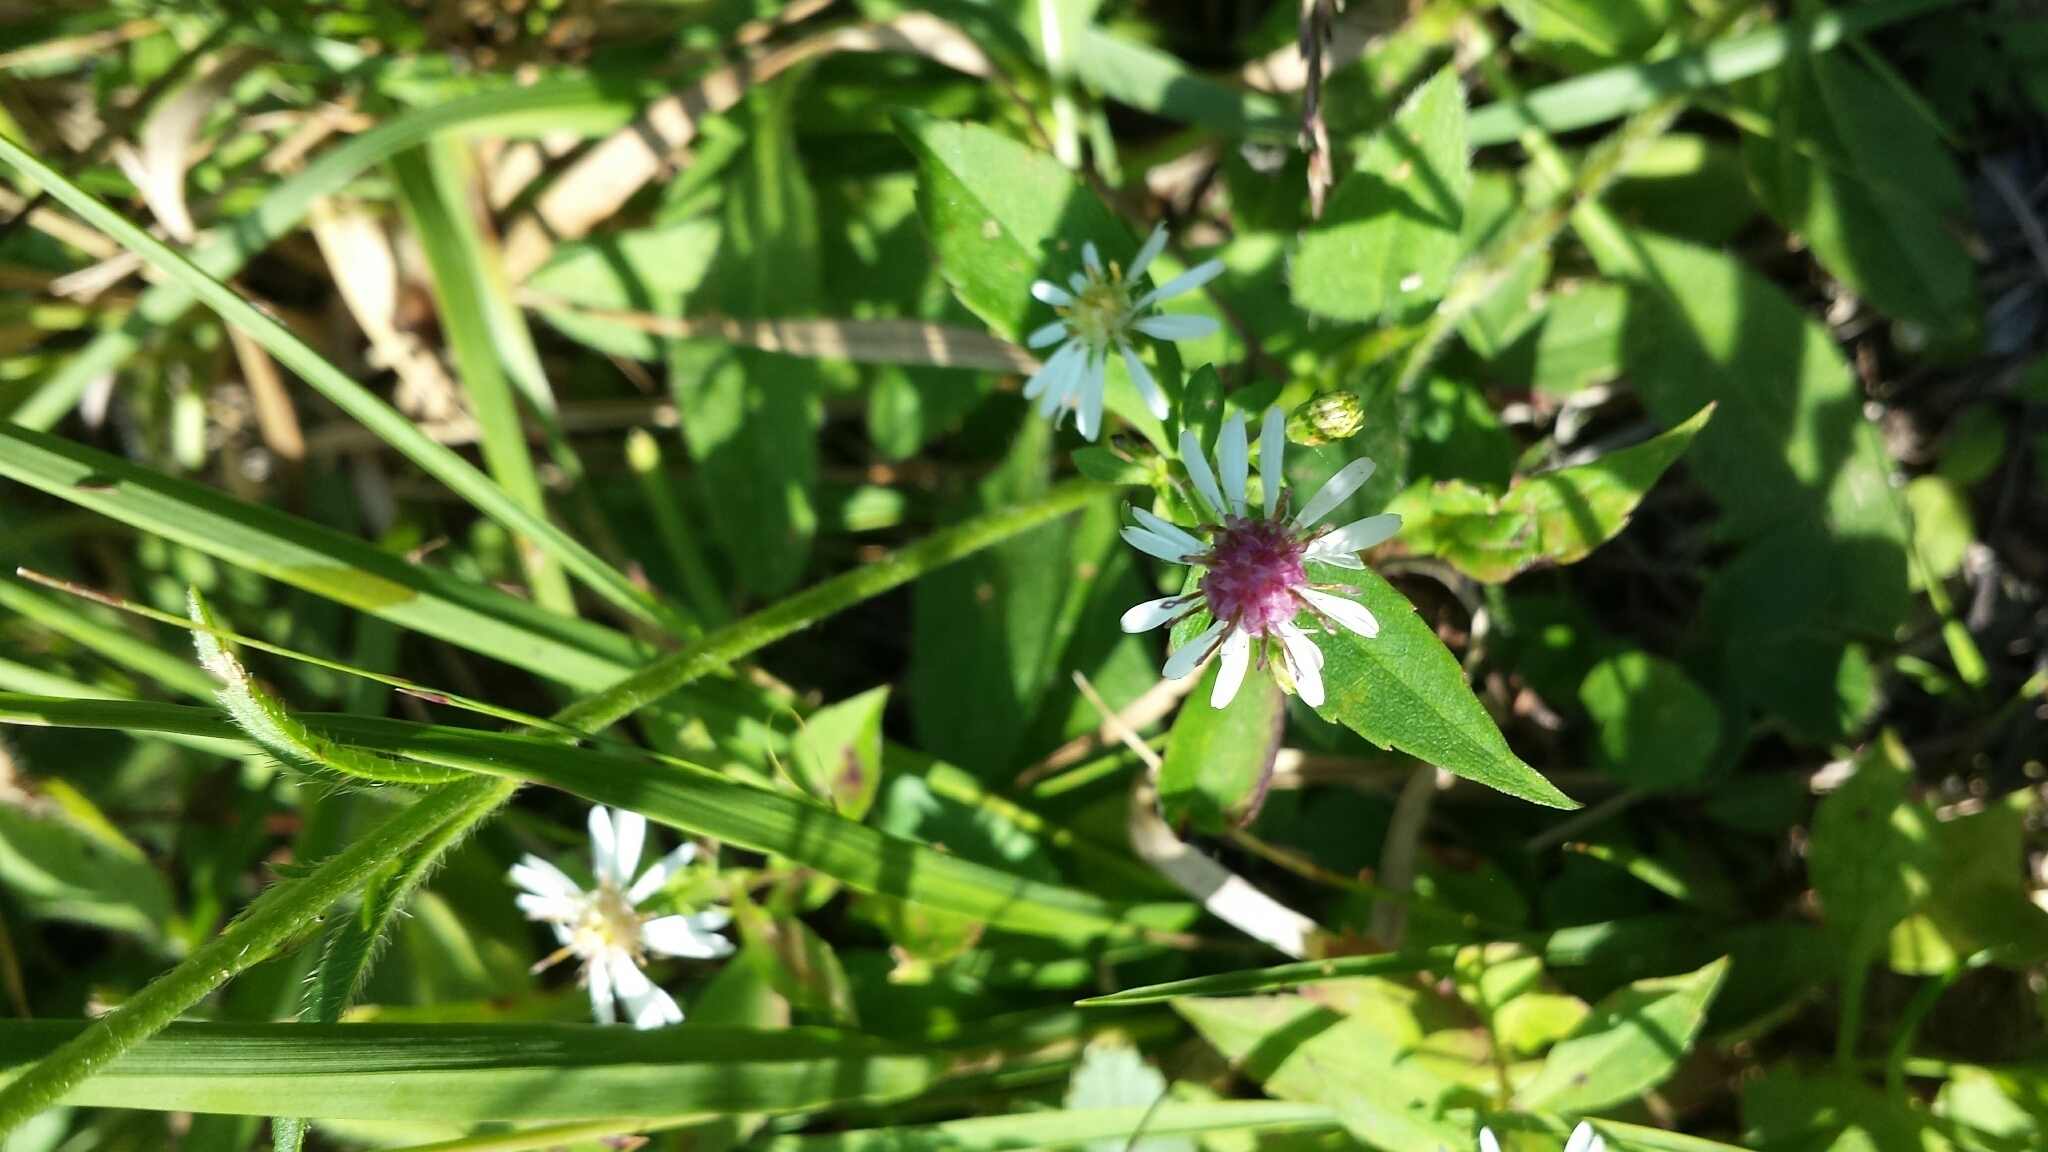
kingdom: Plantae
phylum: Tracheophyta
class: Magnoliopsida
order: Asterales
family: Asteraceae
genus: Symphyotrichum
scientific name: Symphyotrichum lateriflorum
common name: Calico aster
